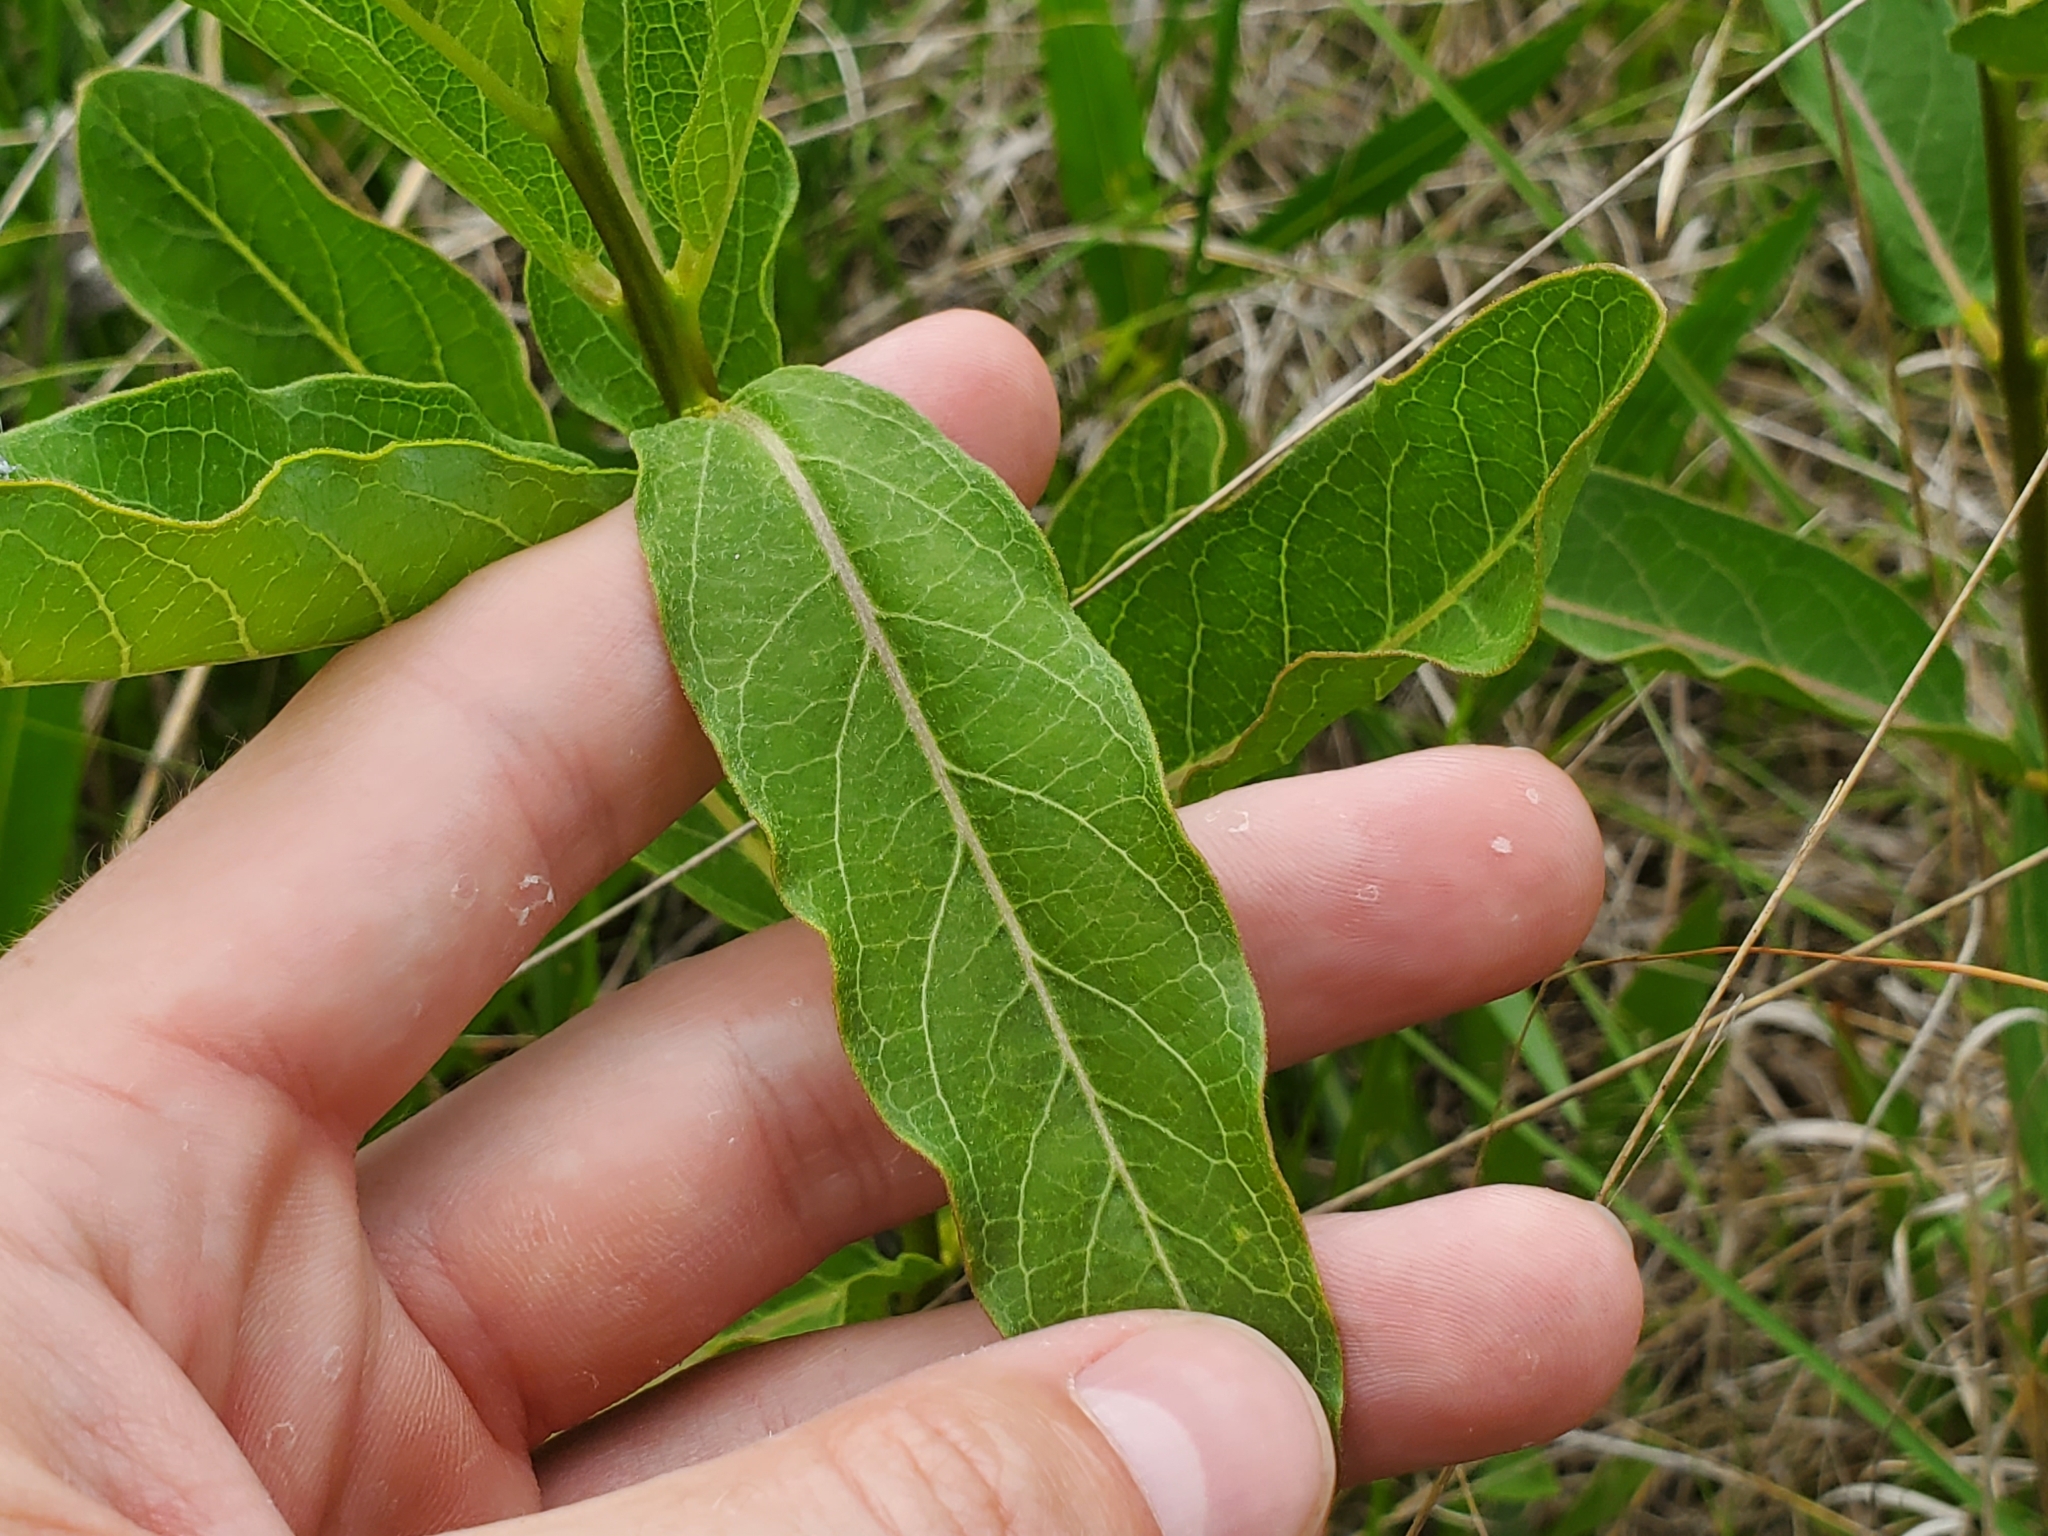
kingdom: Plantae
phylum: Tracheophyta
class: Magnoliopsida
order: Gentianales
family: Apocynaceae
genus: Asclepias
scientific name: Asclepias viridis
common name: Antelope-horns
